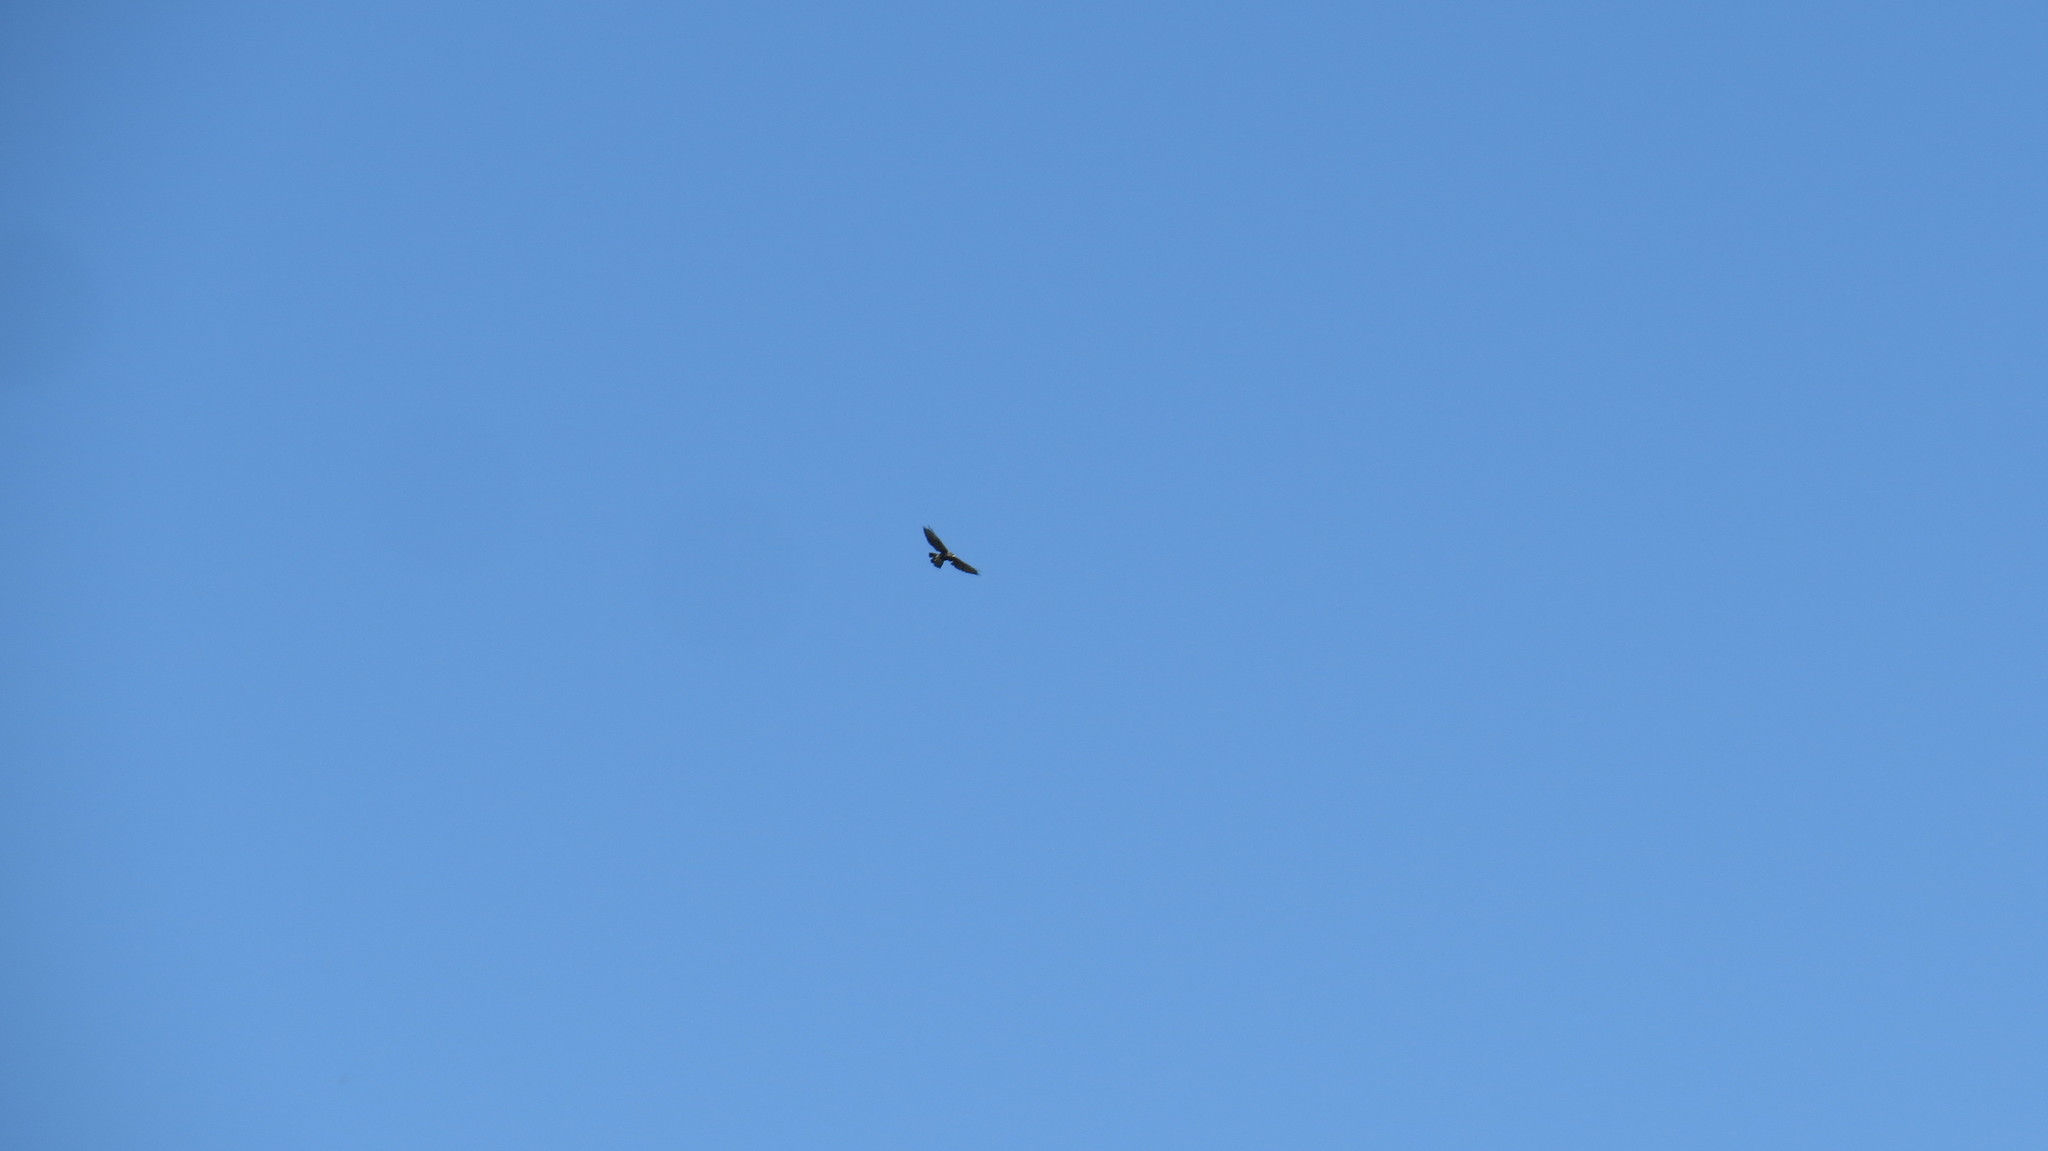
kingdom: Animalia
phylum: Chordata
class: Aves
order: Accipitriformes
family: Accipitridae
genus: Parabuteo
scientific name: Parabuteo unicinctus
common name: Harris's hawk
